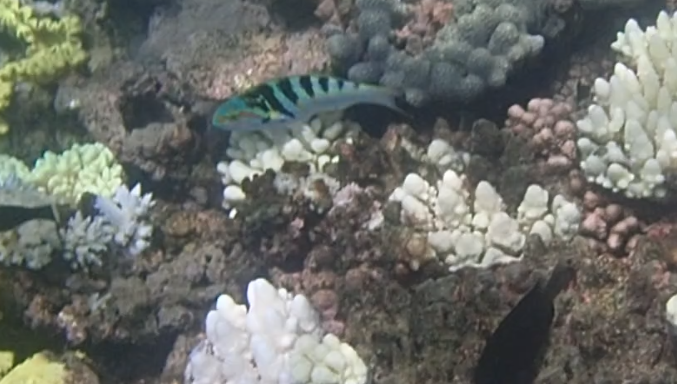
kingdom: Animalia
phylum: Chordata
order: Perciformes
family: Labridae
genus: Thalassoma
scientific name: Thalassoma hardwicke
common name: Sixbar wrasse
